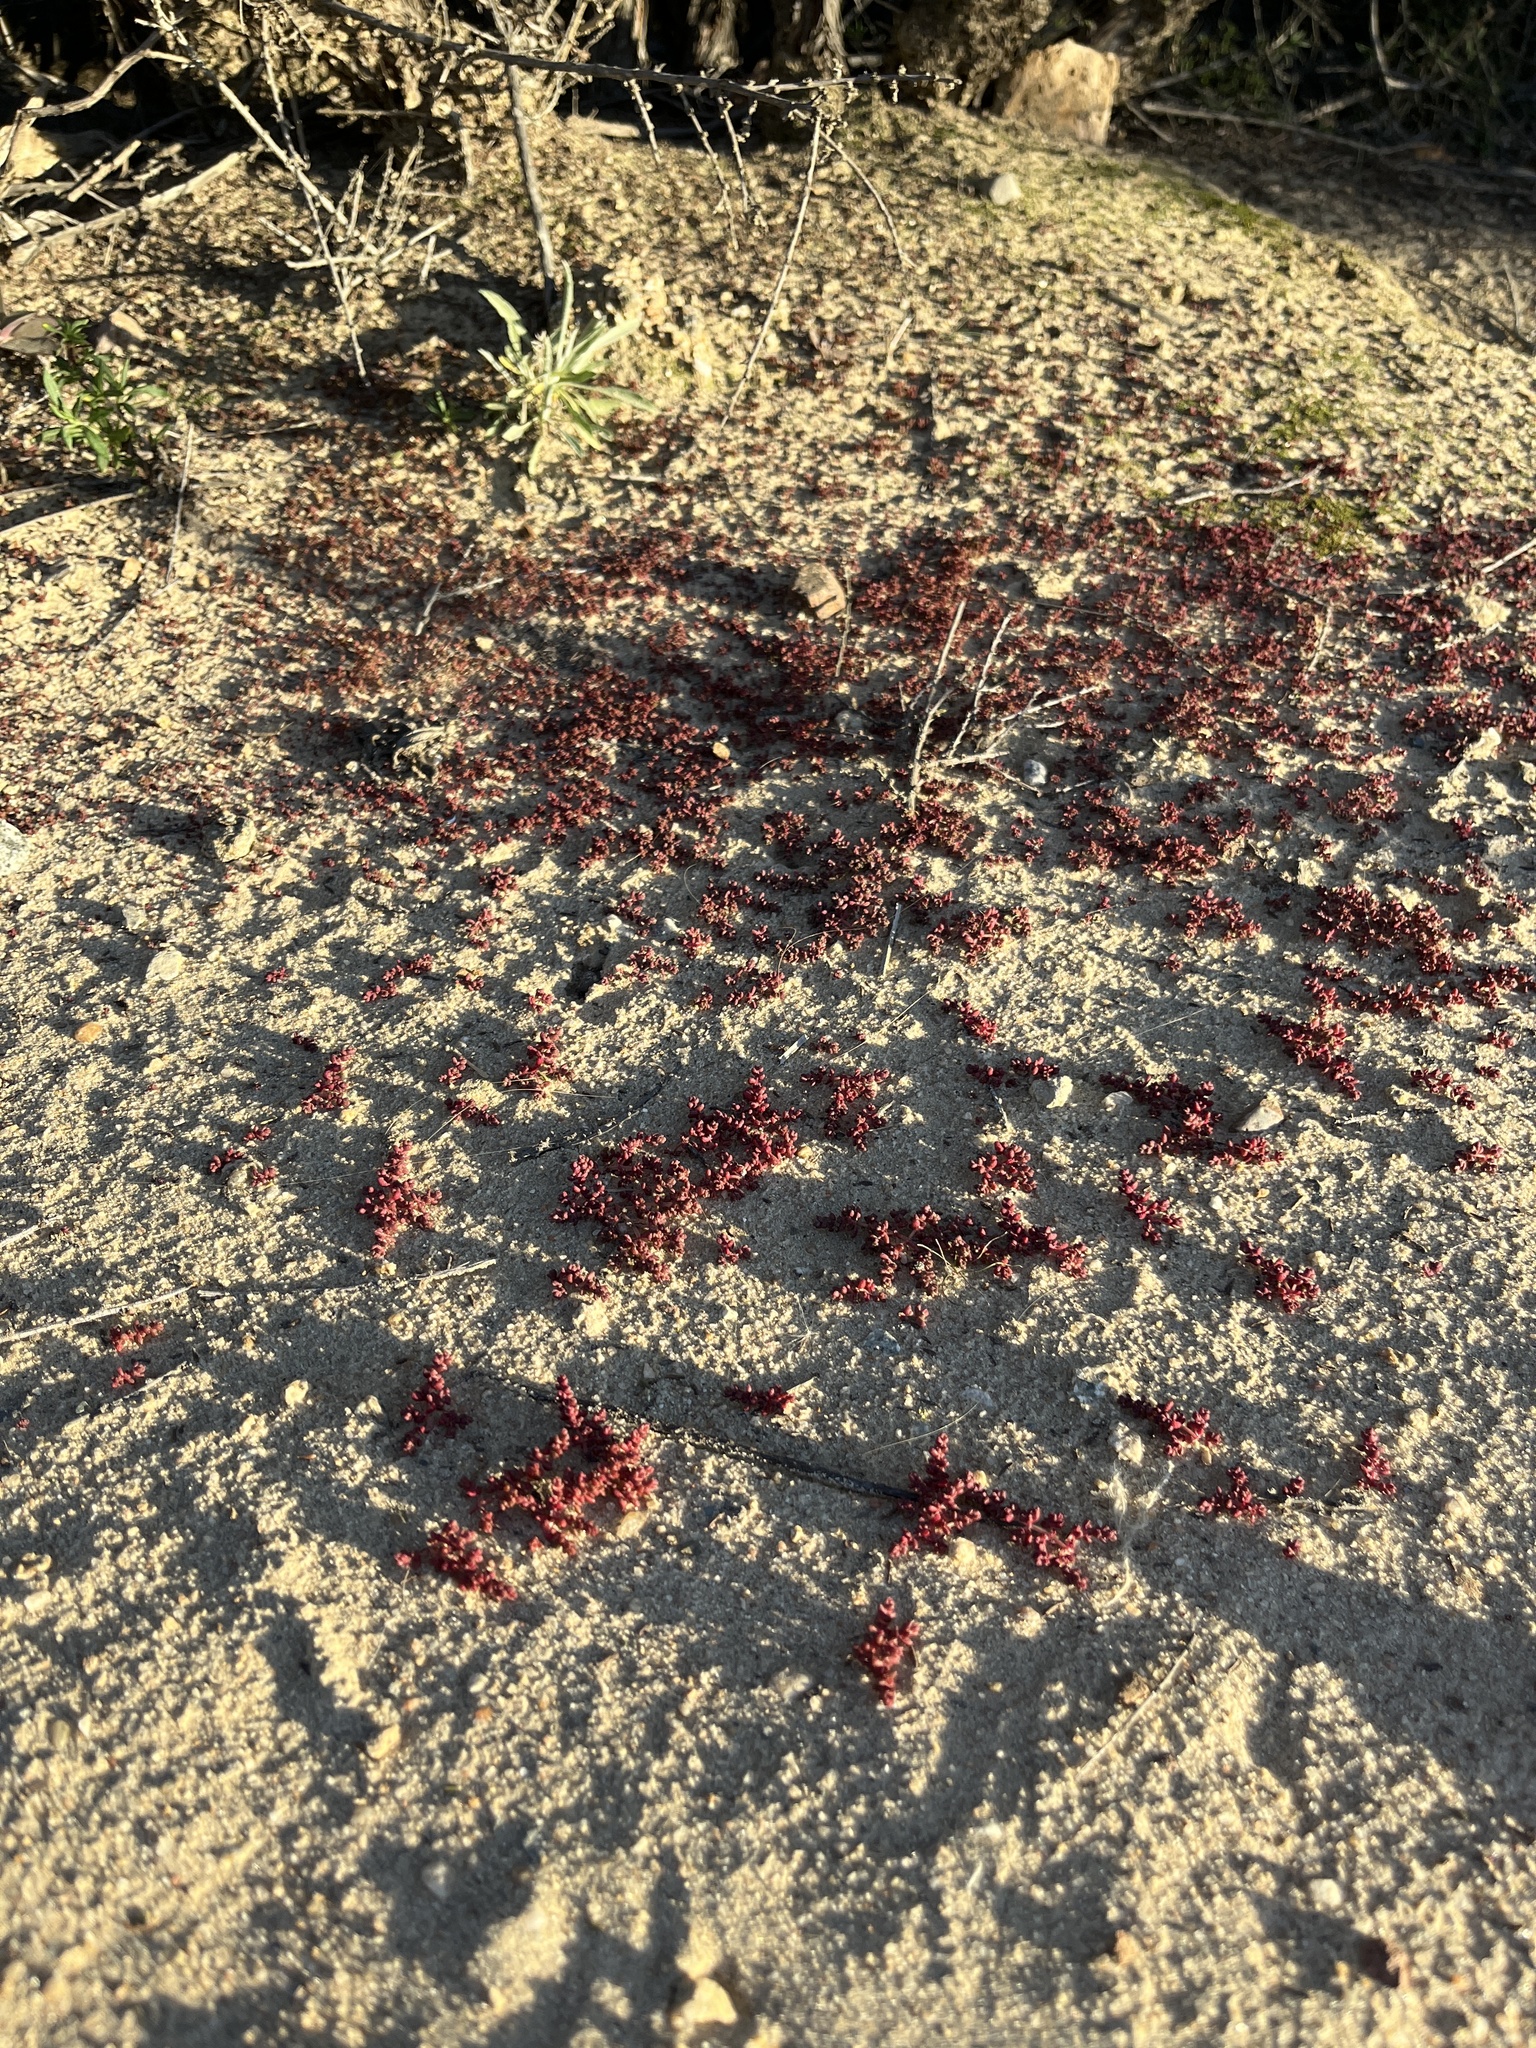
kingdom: Plantae
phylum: Tracheophyta
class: Magnoliopsida
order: Saxifragales
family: Crassulaceae
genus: Crassula
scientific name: Crassula connata
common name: Erect pygmyweed
